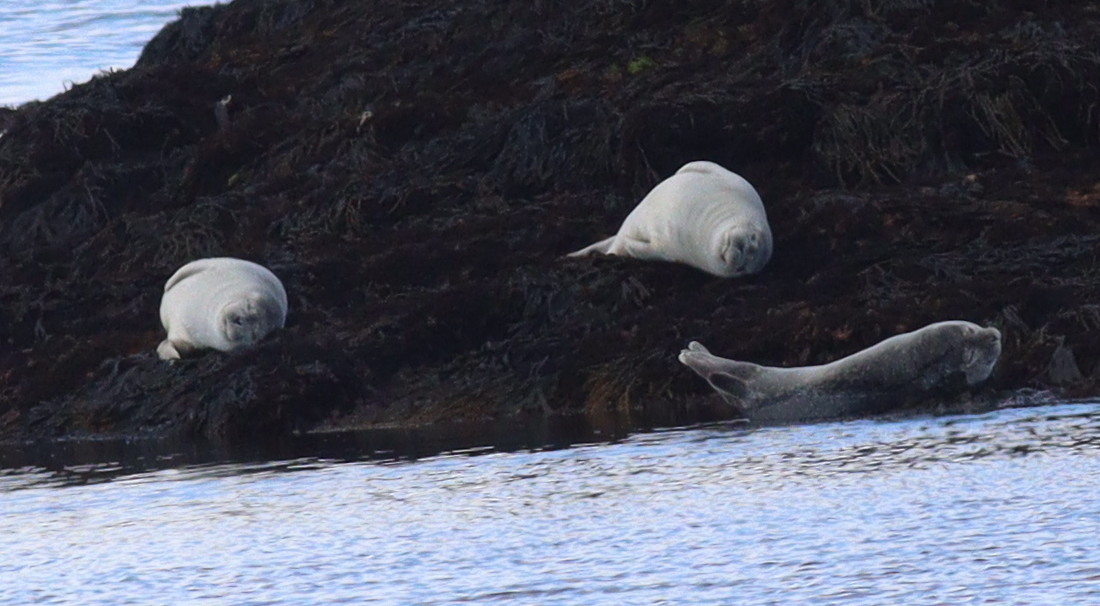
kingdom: Animalia
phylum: Chordata
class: Mammalia
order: Carnivora
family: Phocidae
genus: Phoca
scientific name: Phoca vitulina
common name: Harbor seal
